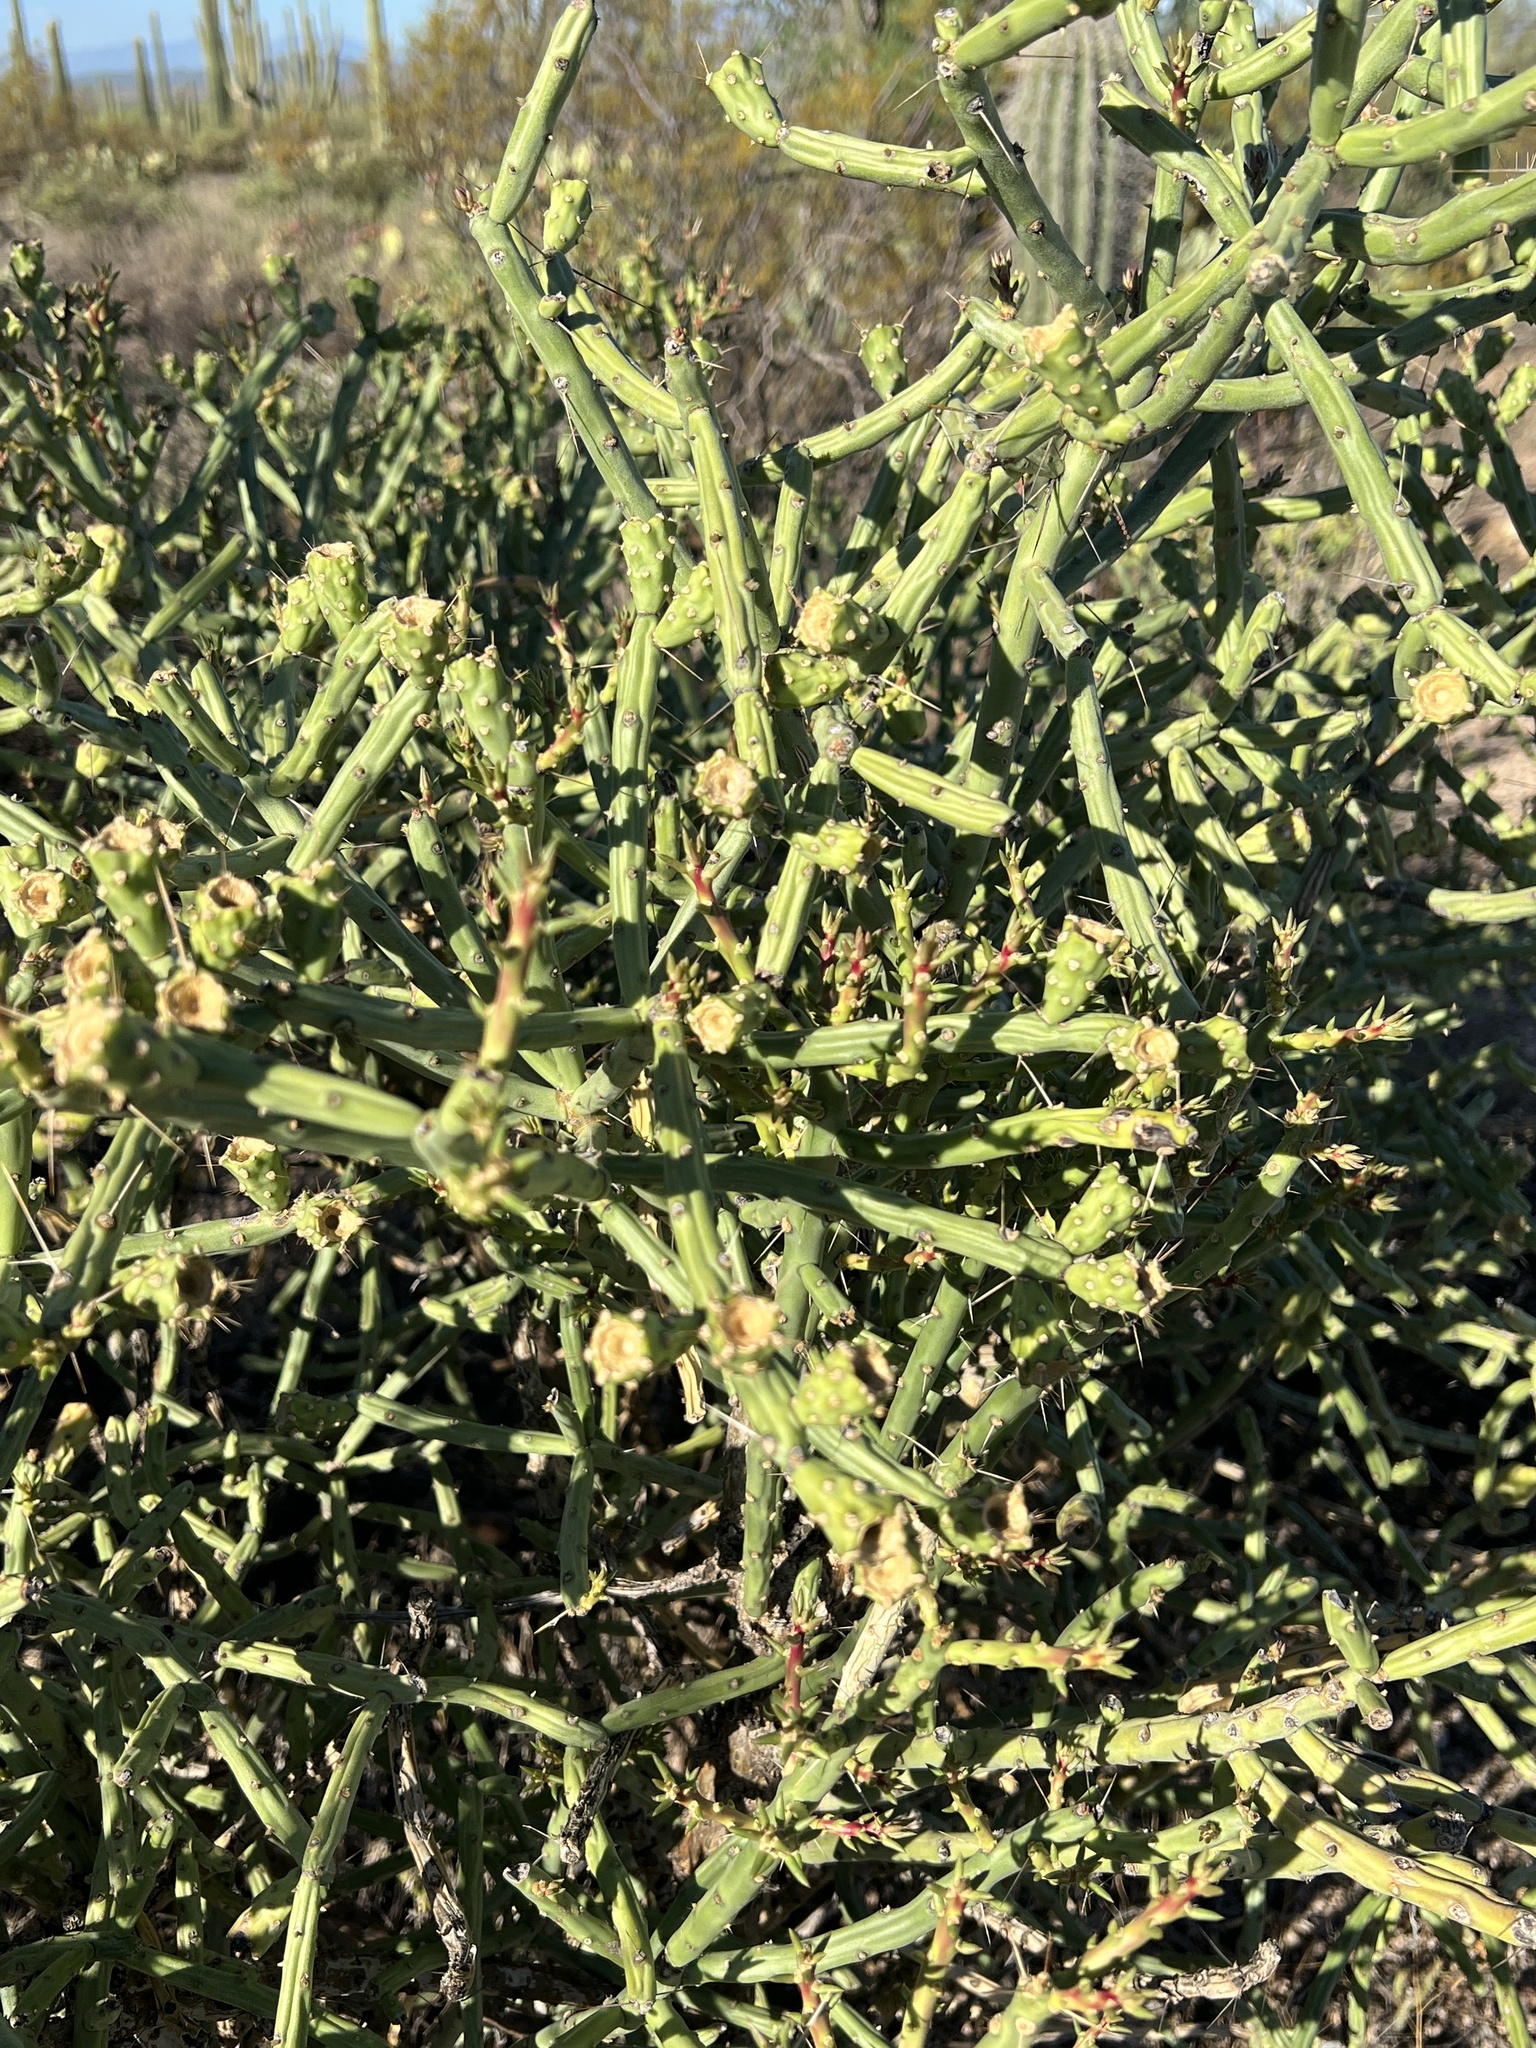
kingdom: Plantae
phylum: Tracheophyta
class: Magnoliopsida
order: Caryophyllales
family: Cactaceae
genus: Cylindropuntia
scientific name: Cylindropuntia arbuscula
